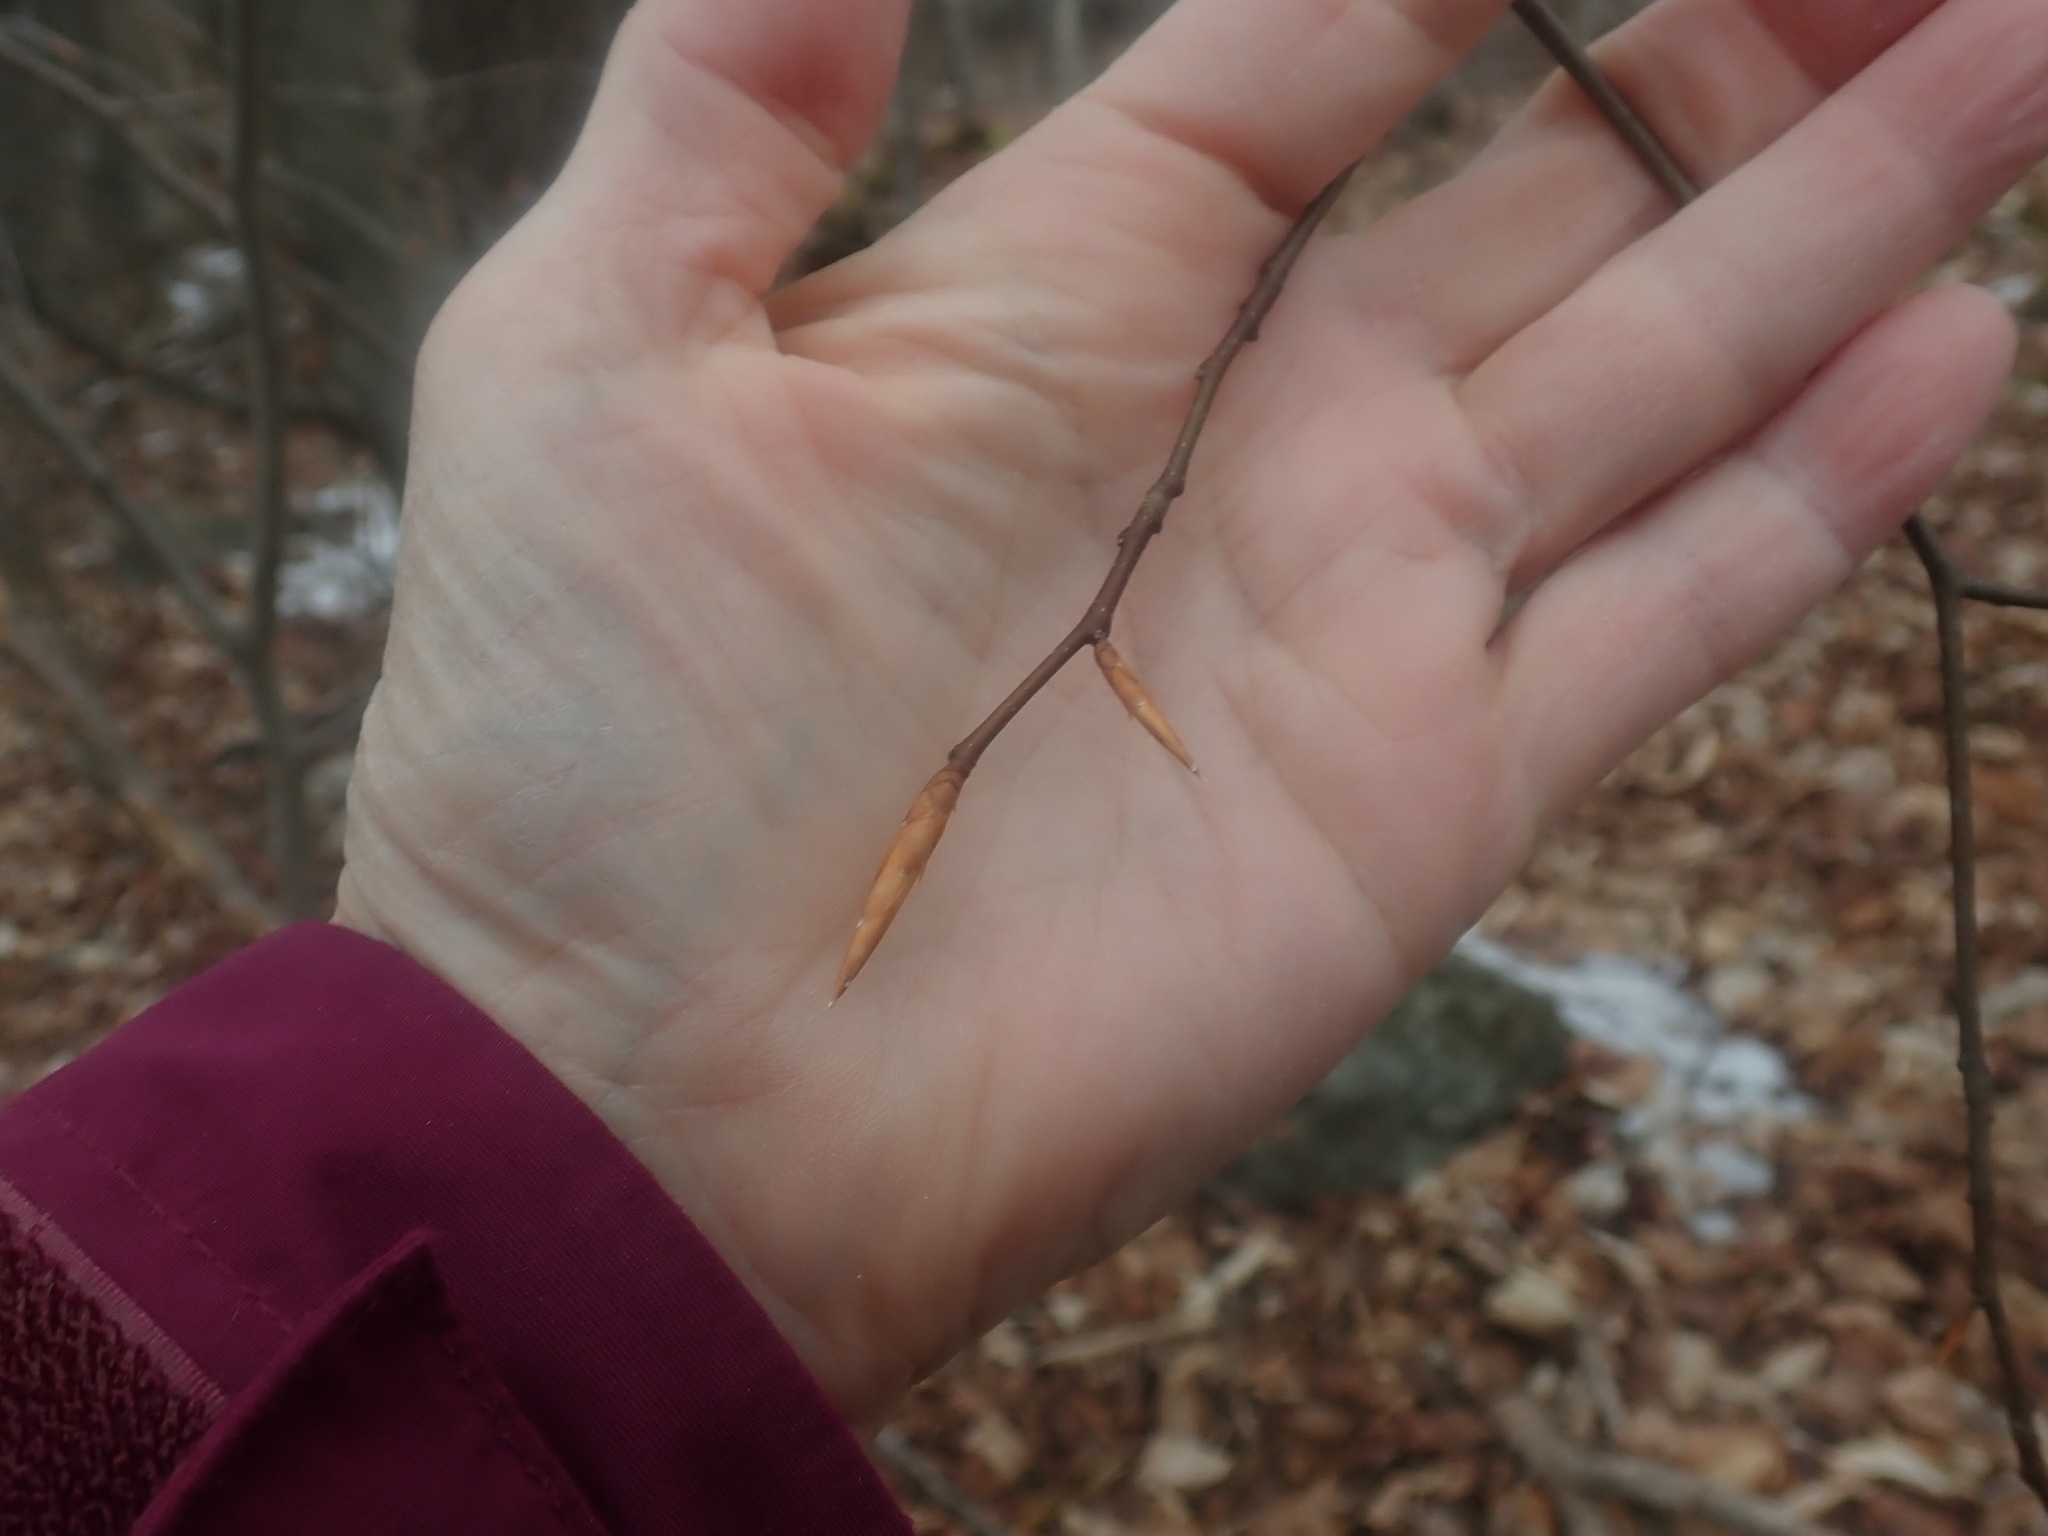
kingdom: Plantae
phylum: Tracheophyta
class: Magnoliopsida
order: Fagales
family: Fagaceae
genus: Fagus
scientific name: Fagus grandifolia
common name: American beech
